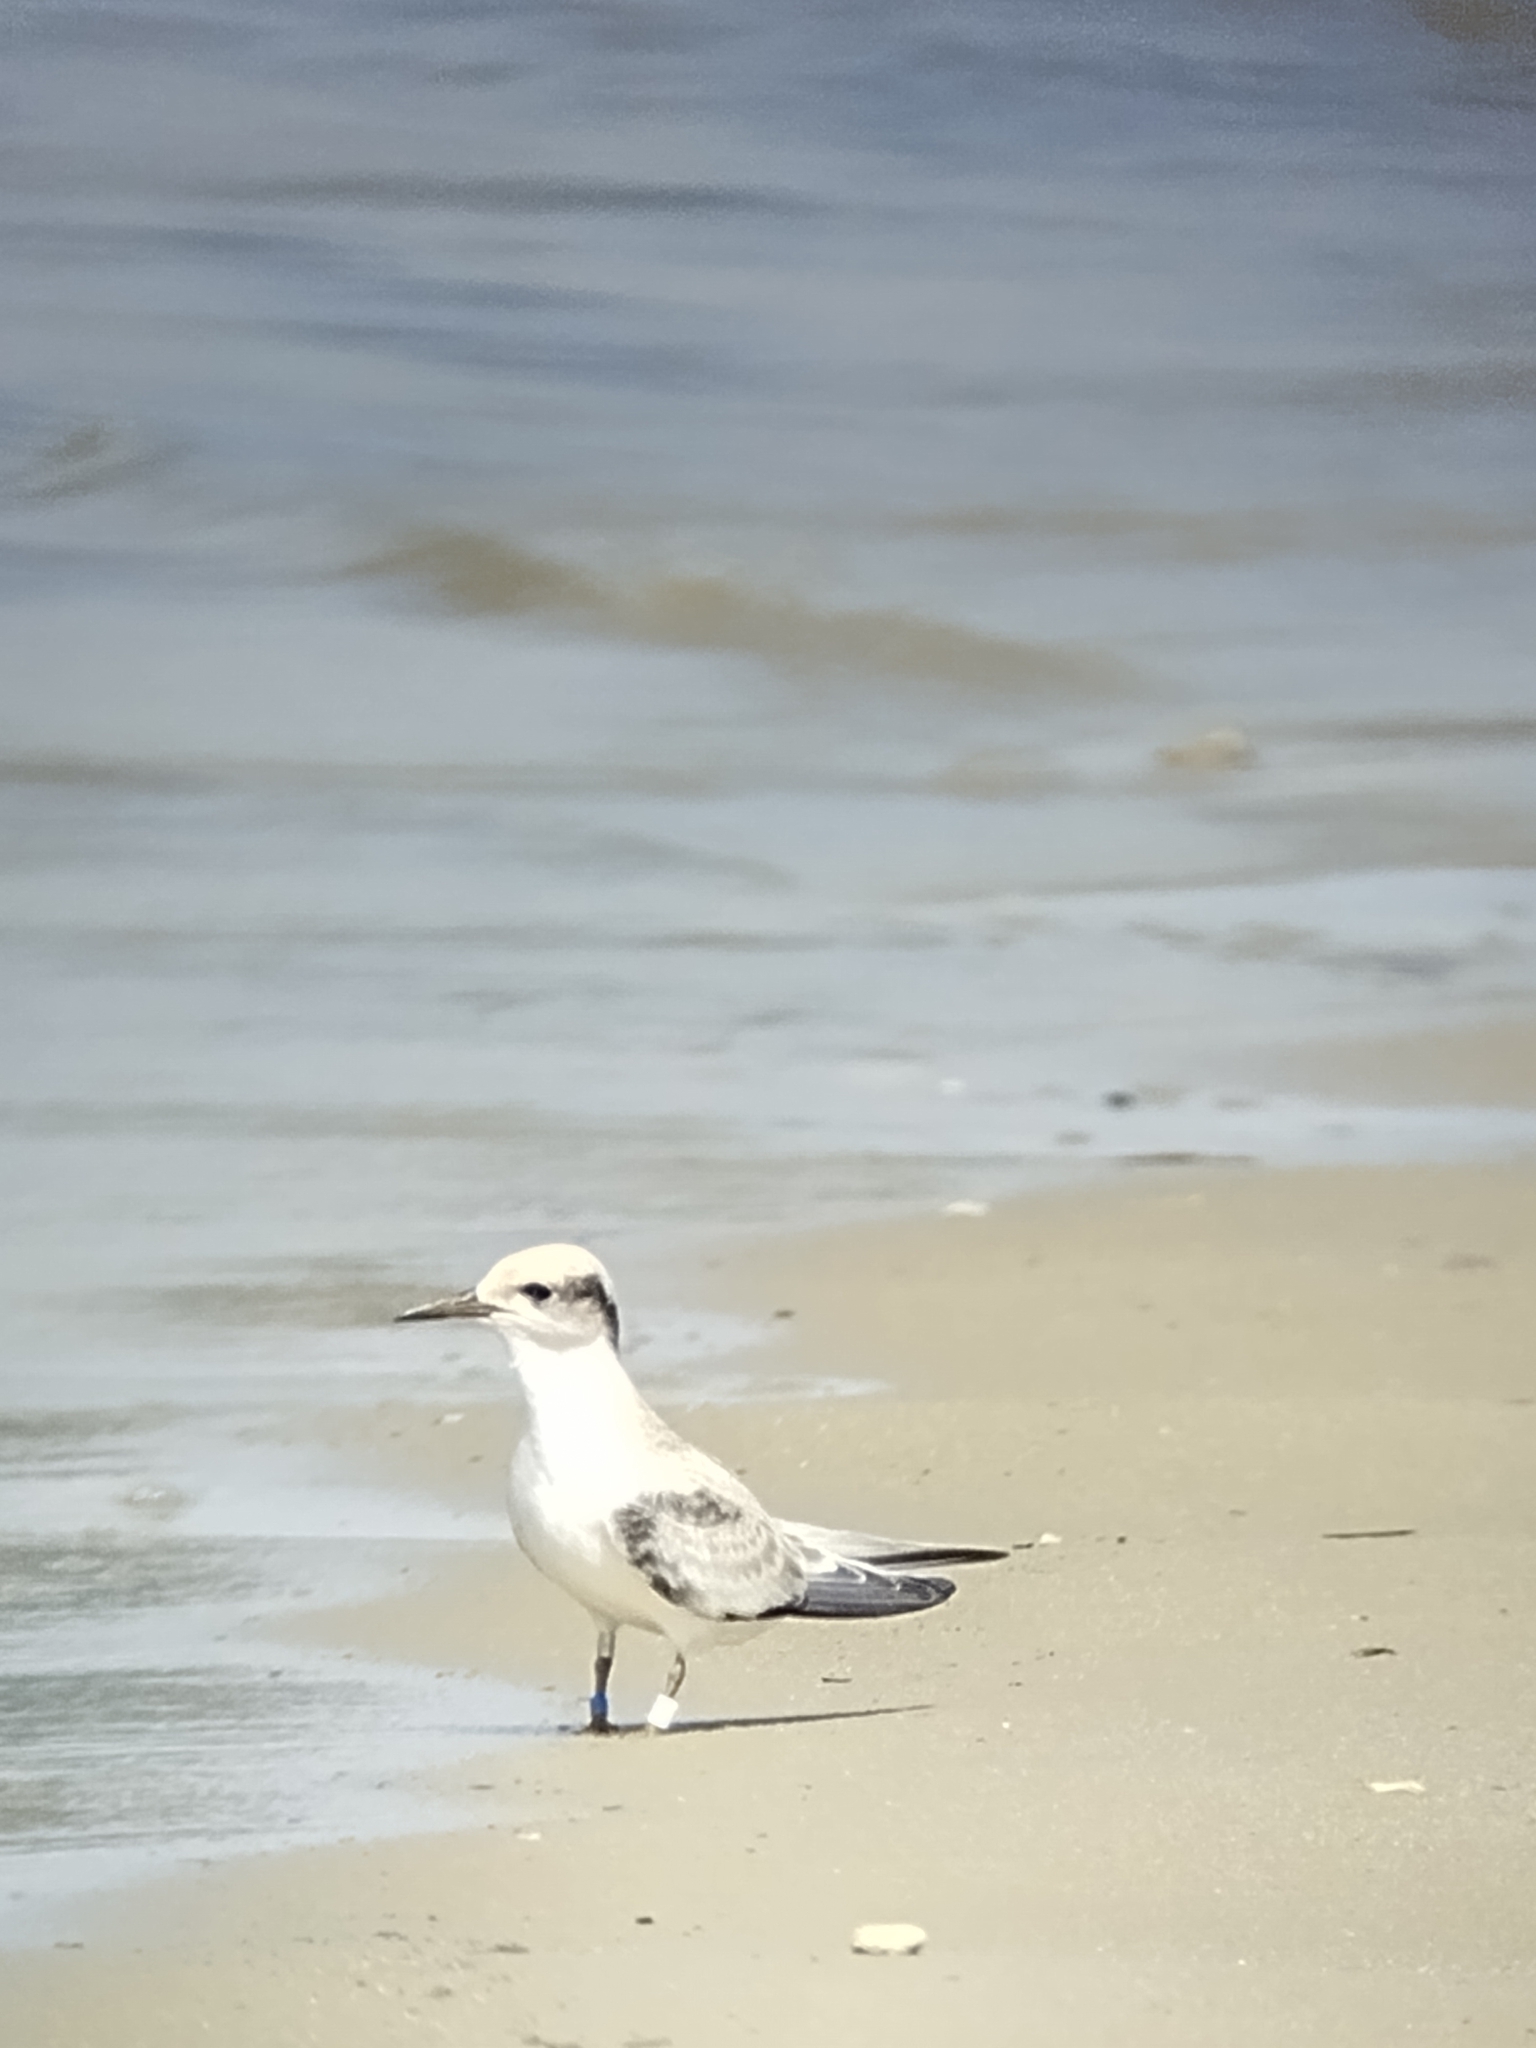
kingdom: Animalia
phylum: Chordata
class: Aves
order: Charadriiformes
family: Laridae
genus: Sternula
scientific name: Sternula antillarum
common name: Least tern
